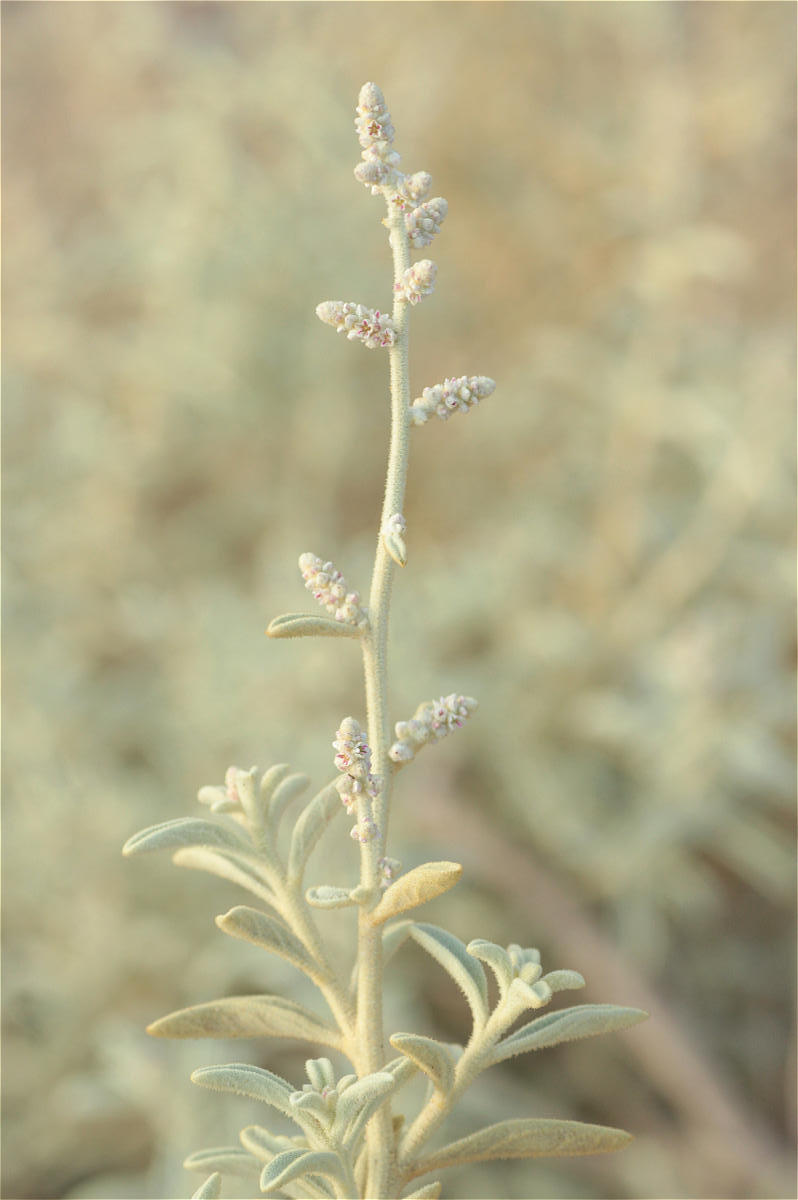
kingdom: Plantae
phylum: Tracheophyta
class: Magnoliopsida
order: Caryophyllales
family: Amaranthaceae
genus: Aerva
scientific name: Aerva javanica
